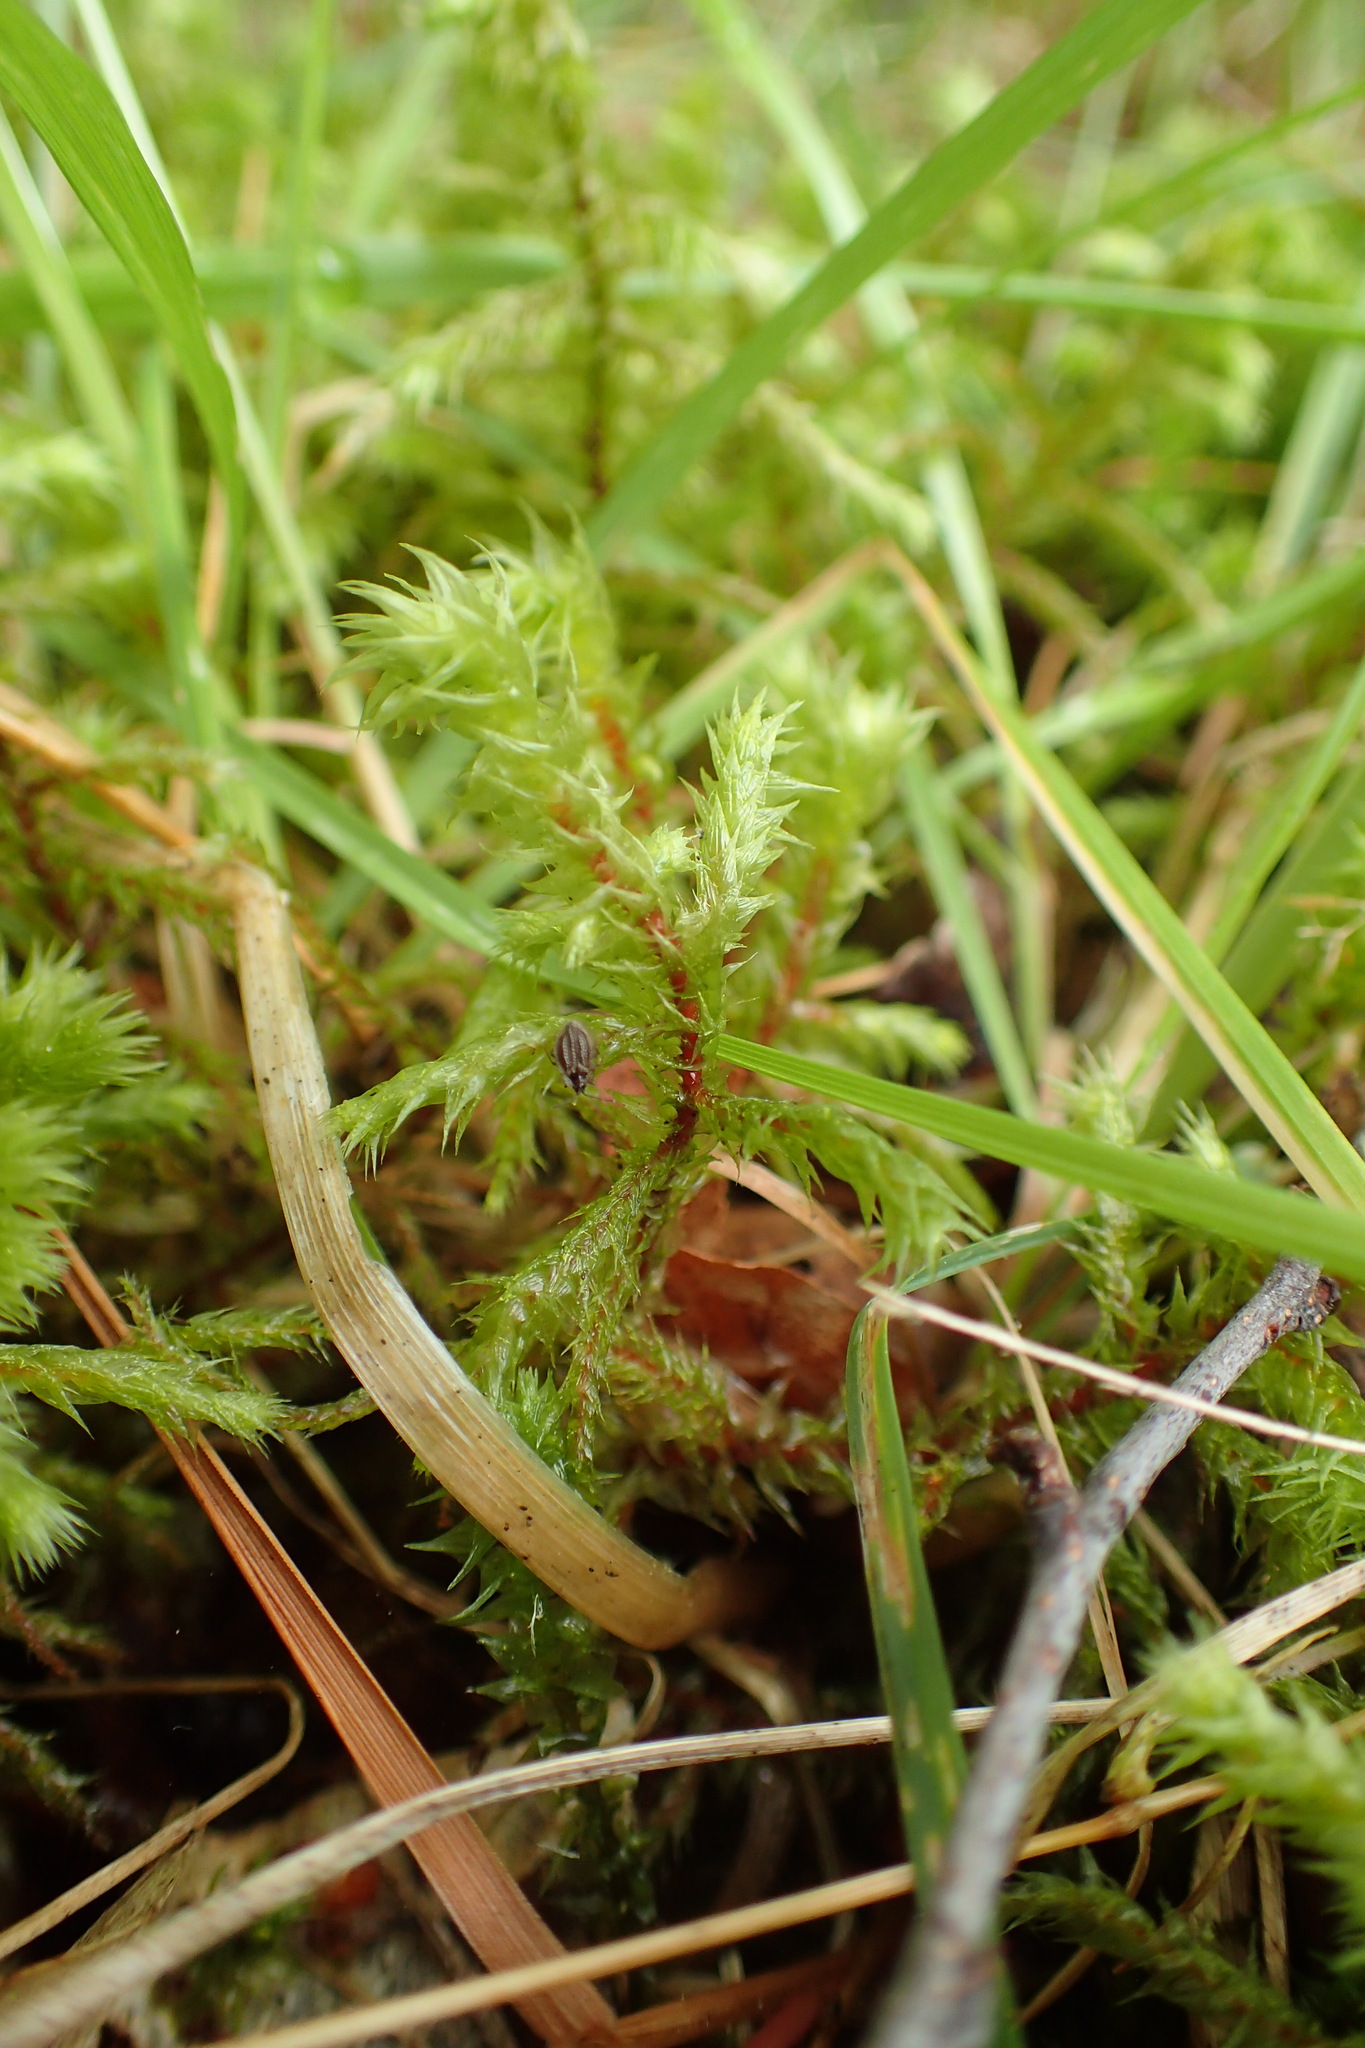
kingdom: Plantae
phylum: Bryophyta
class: Bryopsida
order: Hypnales
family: Hylocomiaceae
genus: Hylocomiadelphus
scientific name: Hylocomiadelphus triquetrus
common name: Rough goose neck moss
